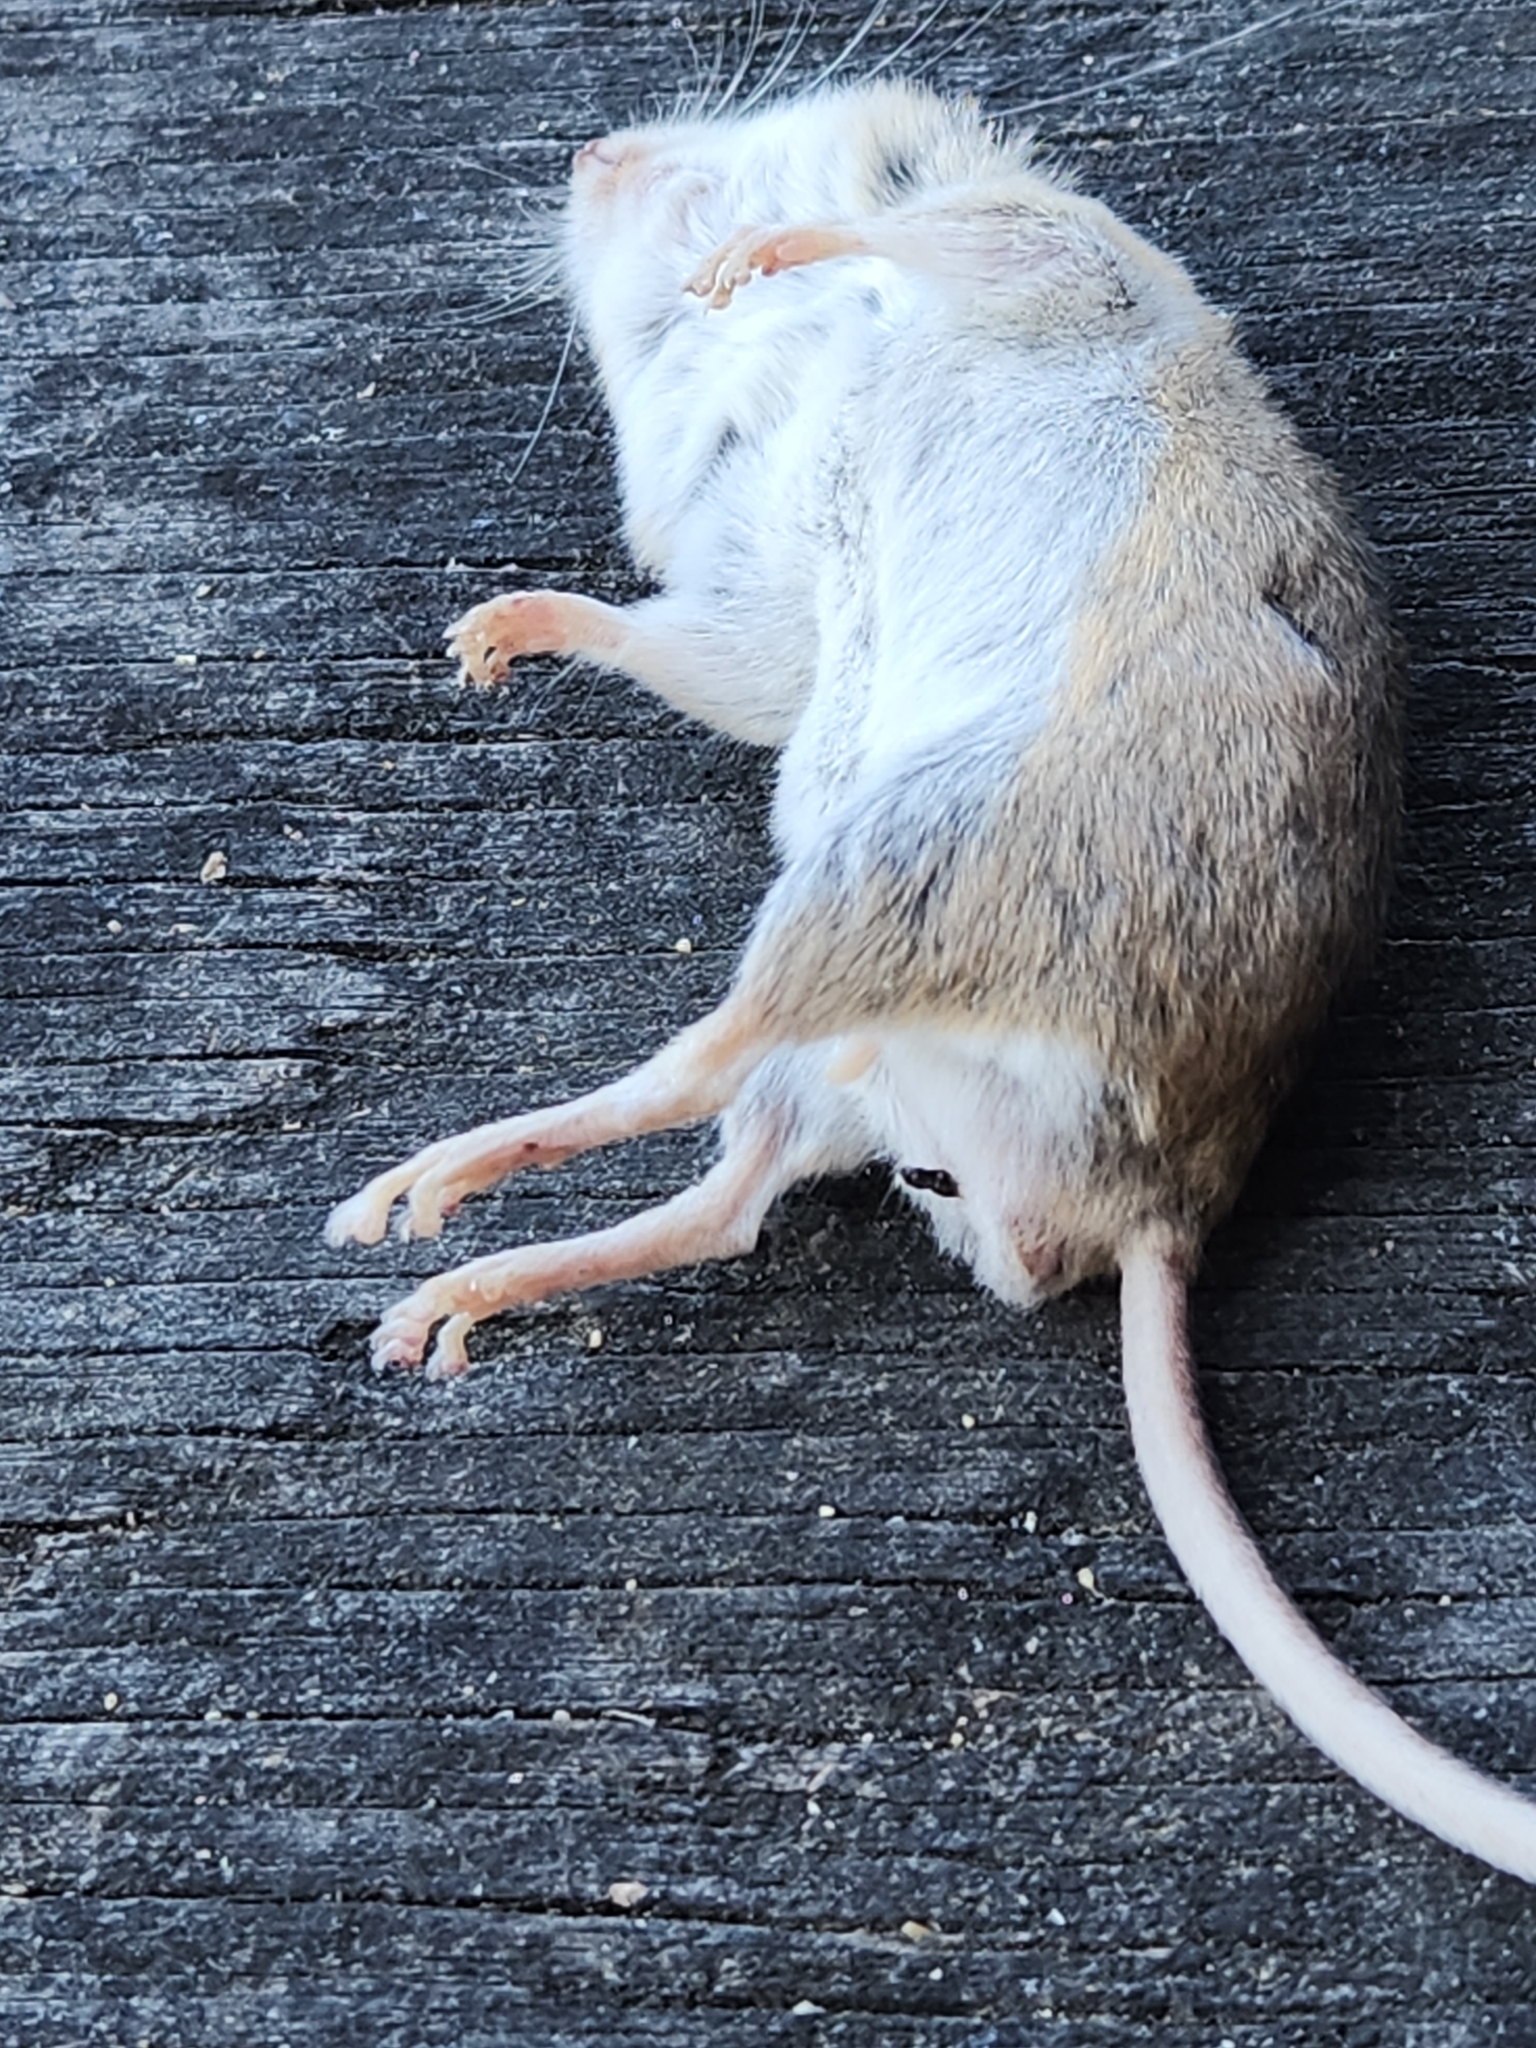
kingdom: Animalia
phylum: Chordata
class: Mammalia
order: Rodentia
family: Cricetidae
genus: Peromyscus
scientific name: Peromyscus pectoralis
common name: White-ankled mouse
